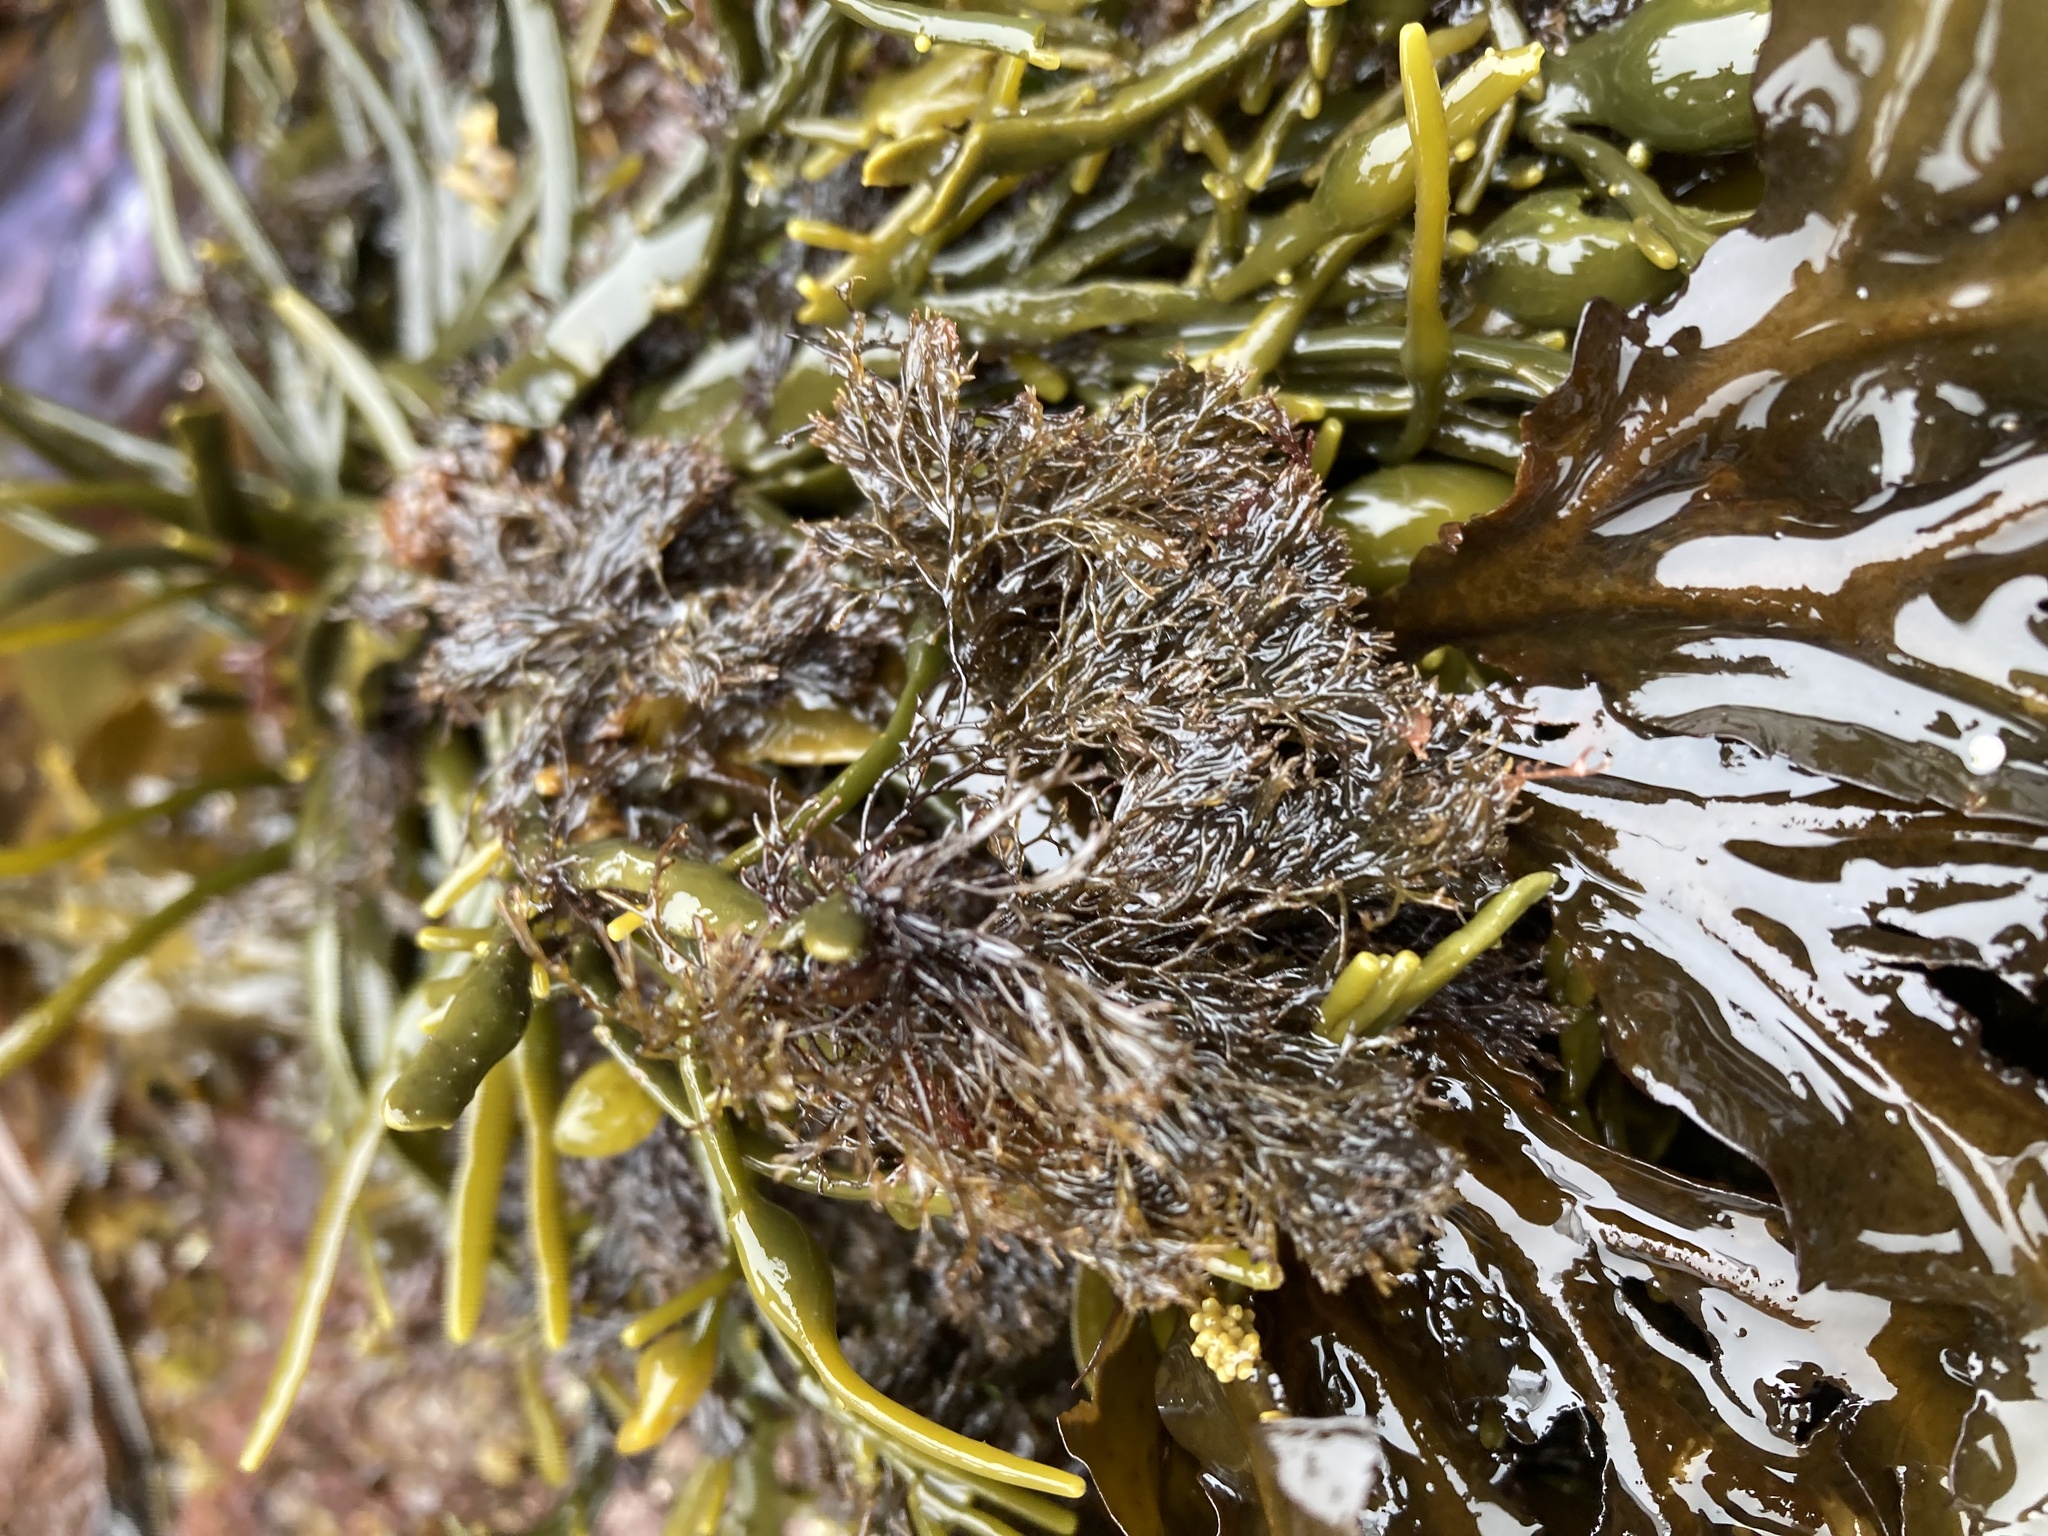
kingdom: Plantae
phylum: Rhodophyta
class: Florideophyceae
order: Ceramiales
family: Rhodomelaceae
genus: Vertebrata
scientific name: Vertebrata lanosa
